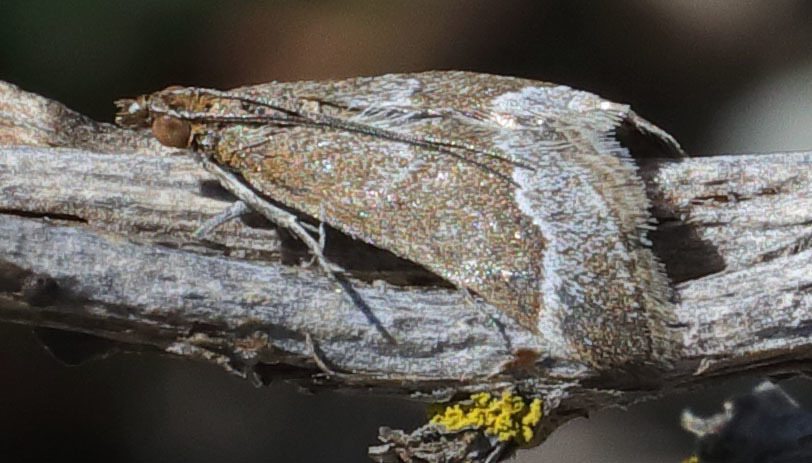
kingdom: Animalia
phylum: Arthropoda
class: Insecta
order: Lepidoptera
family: Crambidae
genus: Pyrausta
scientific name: Pyrausta lethalis
